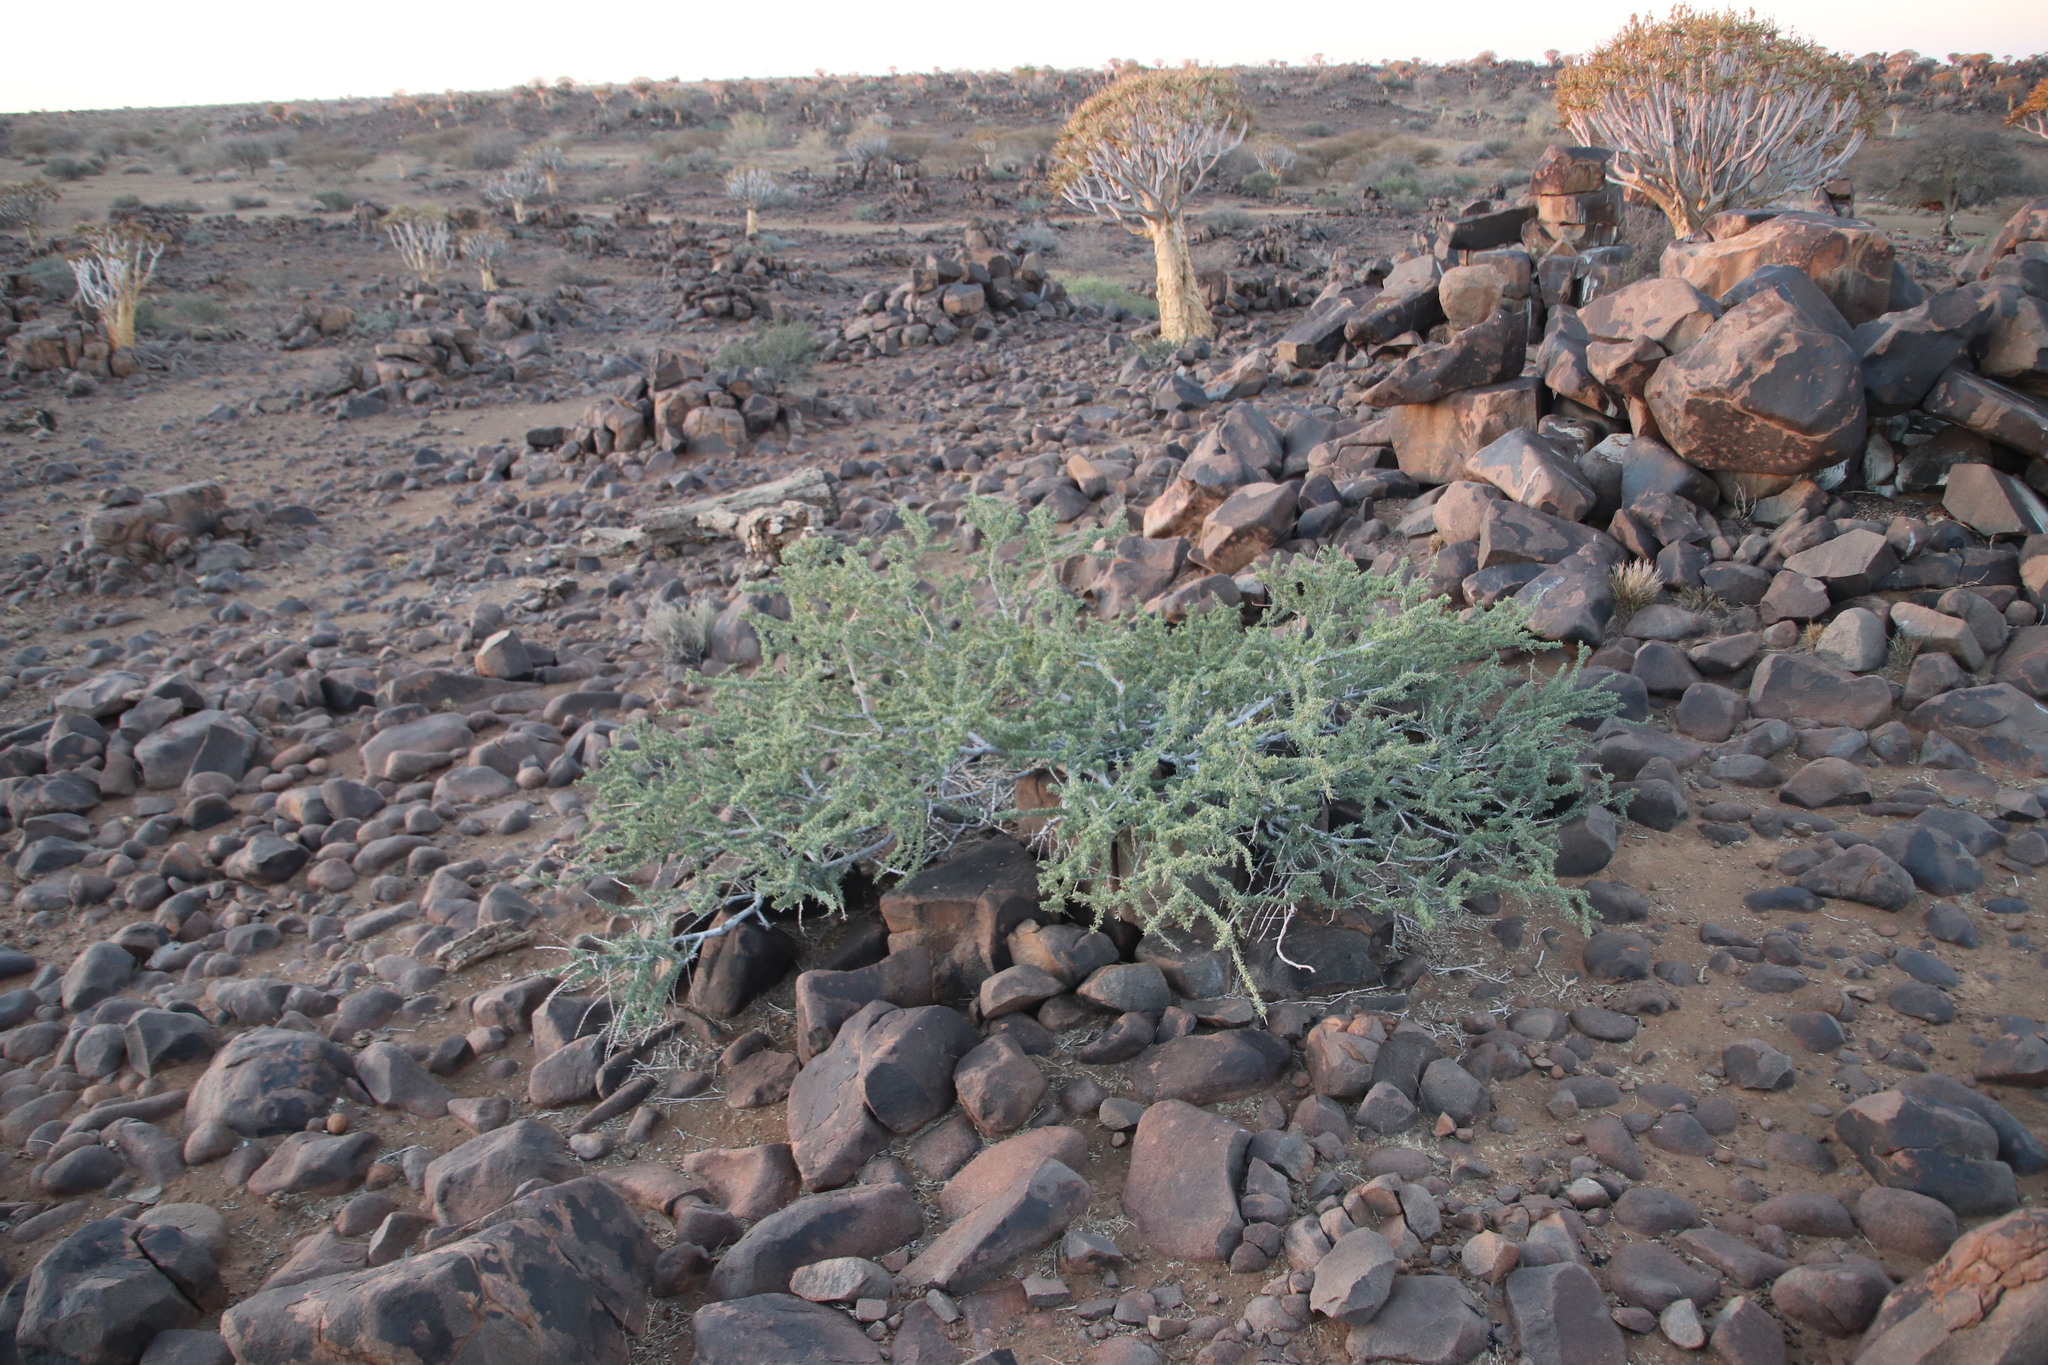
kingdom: Plantae
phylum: Tracheophyta
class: Magnoliopsida
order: Brassicales
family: Capparaceae
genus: Boscia
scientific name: Boscia foetida
